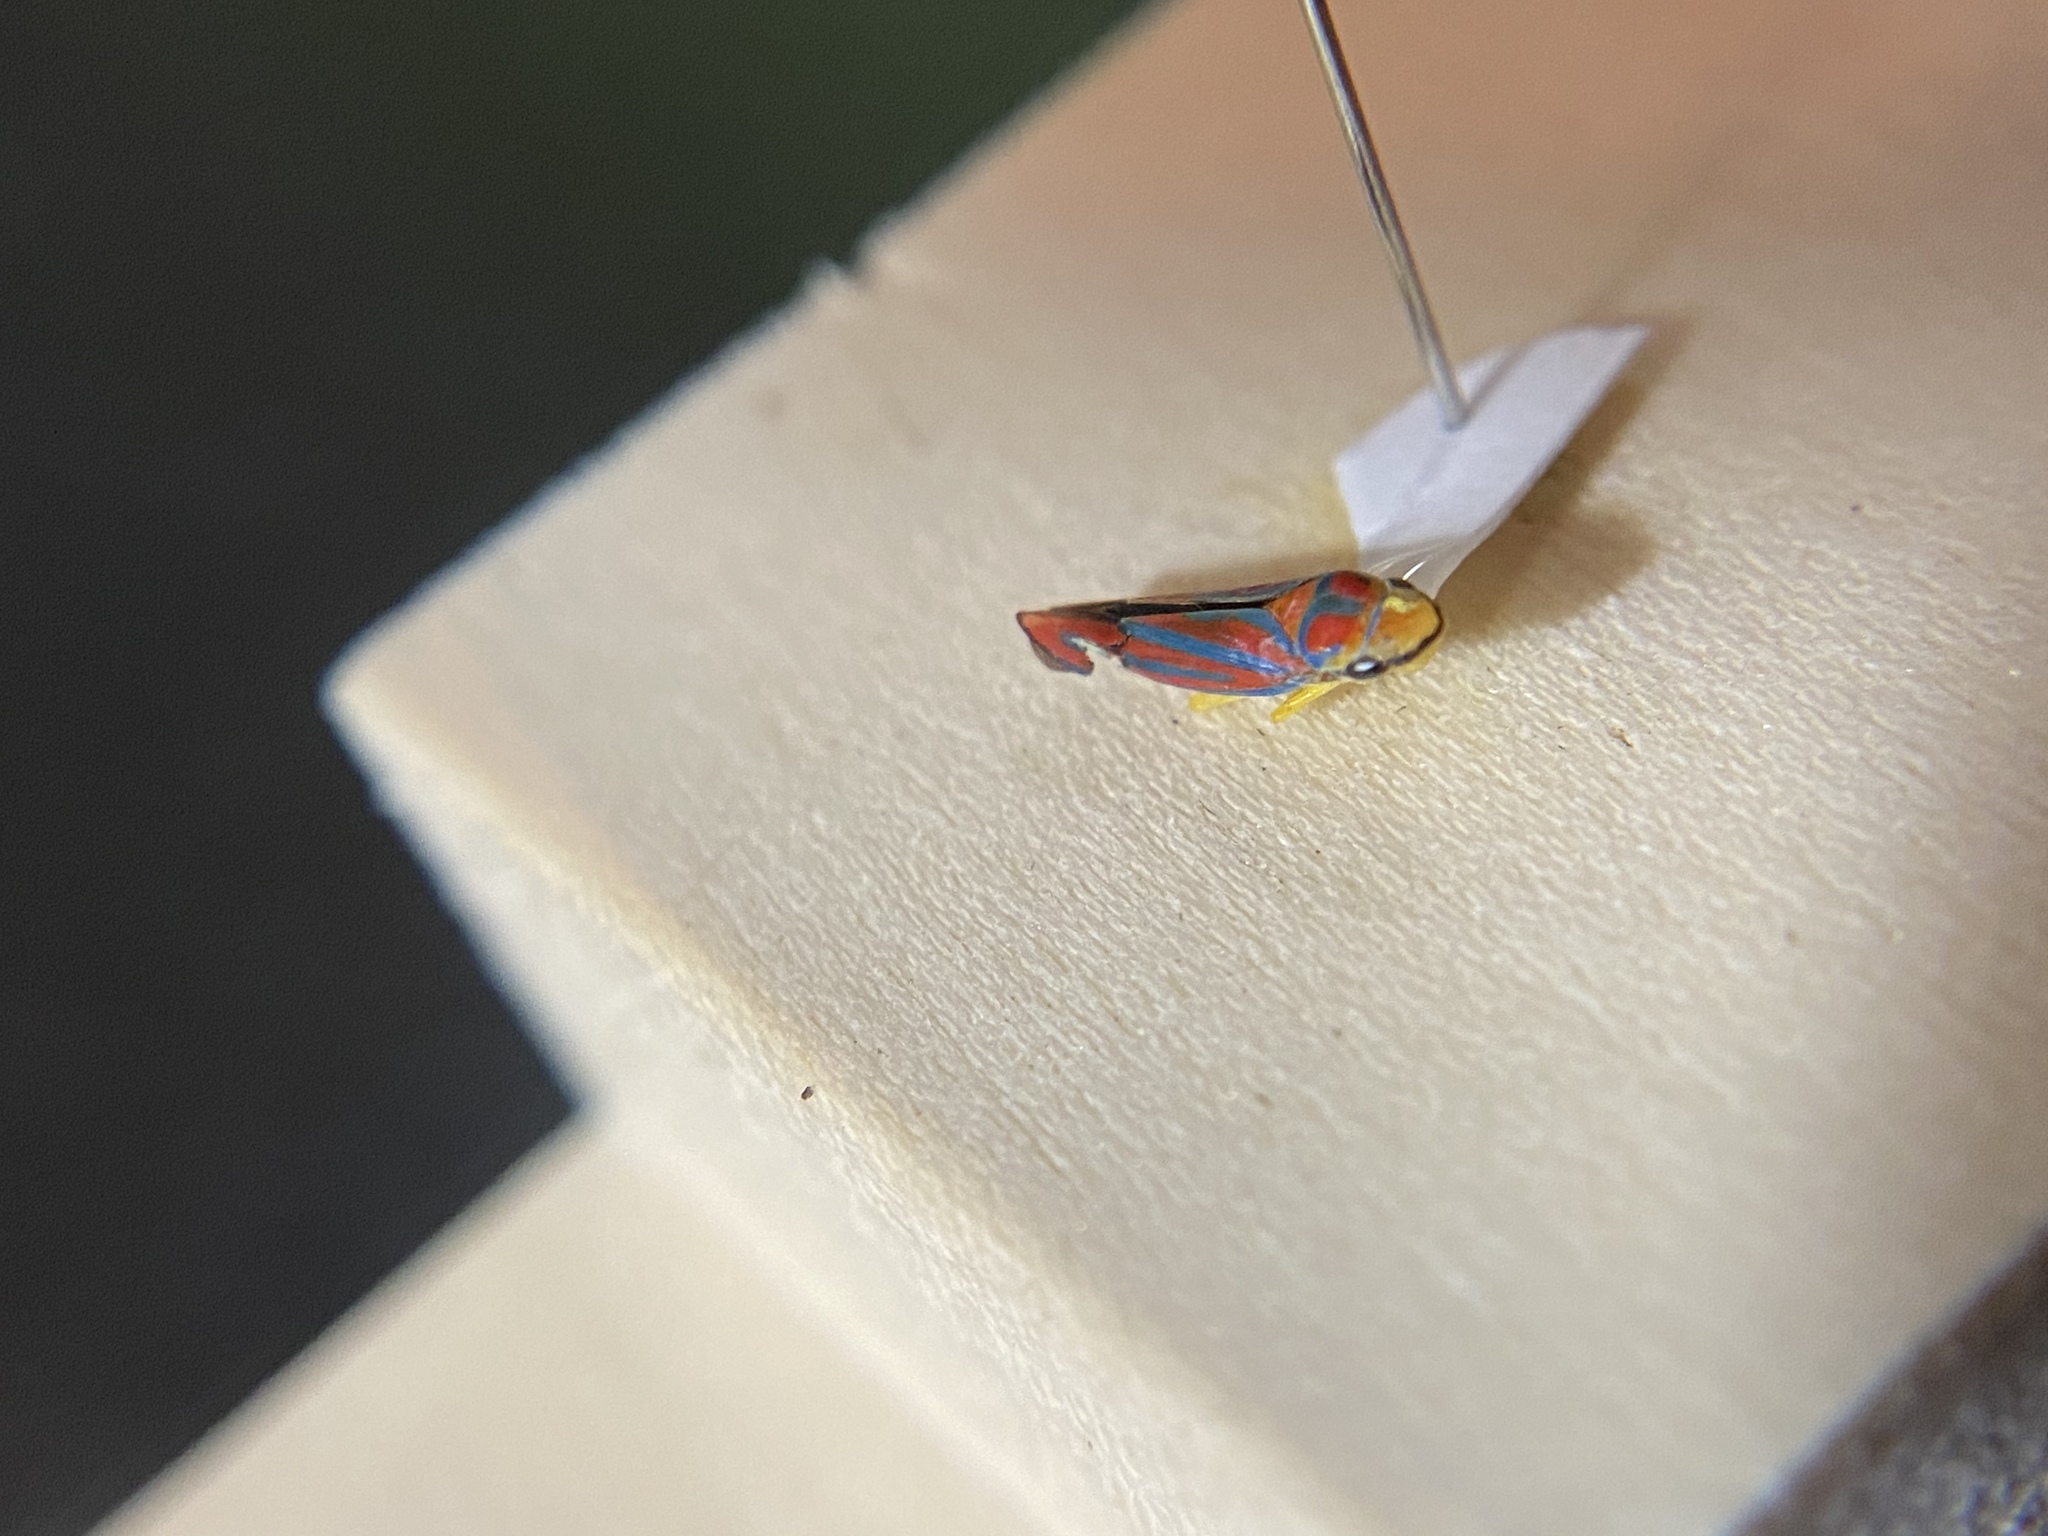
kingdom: Animalia
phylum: Arthropoda
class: Insecta
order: Hemiptera
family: Cicadellidae
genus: Graphocephala
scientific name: Graphocephala coccinea
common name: Candy-striped leafhopper
